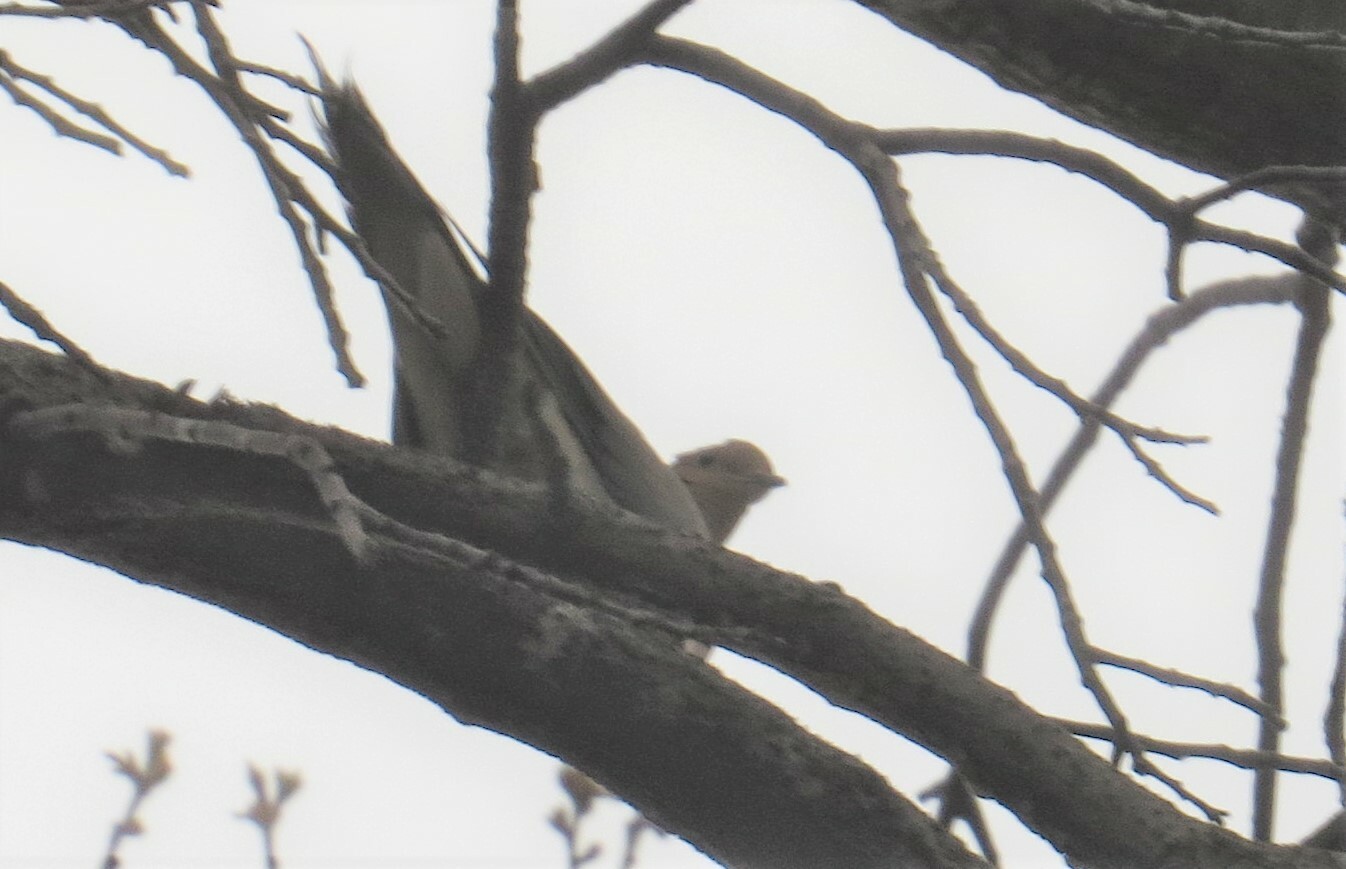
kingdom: Animalia
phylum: Chordata
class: Aves
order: Columbiformes
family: Columbidae
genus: Zenaida
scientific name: Zenaida macroura
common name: Mourning dove
